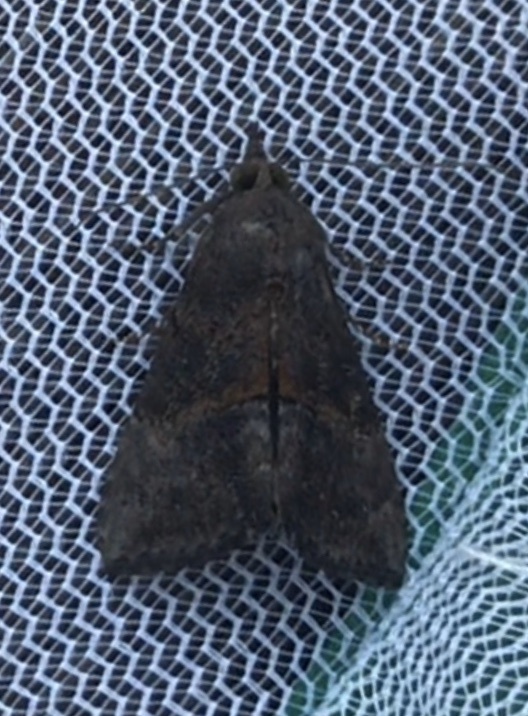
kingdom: Animalia
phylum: Arthropoda
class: Insecta
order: Lepidoptera
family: Erebidae
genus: Hypena
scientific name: Hypena scabra
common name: Green cloverworm
